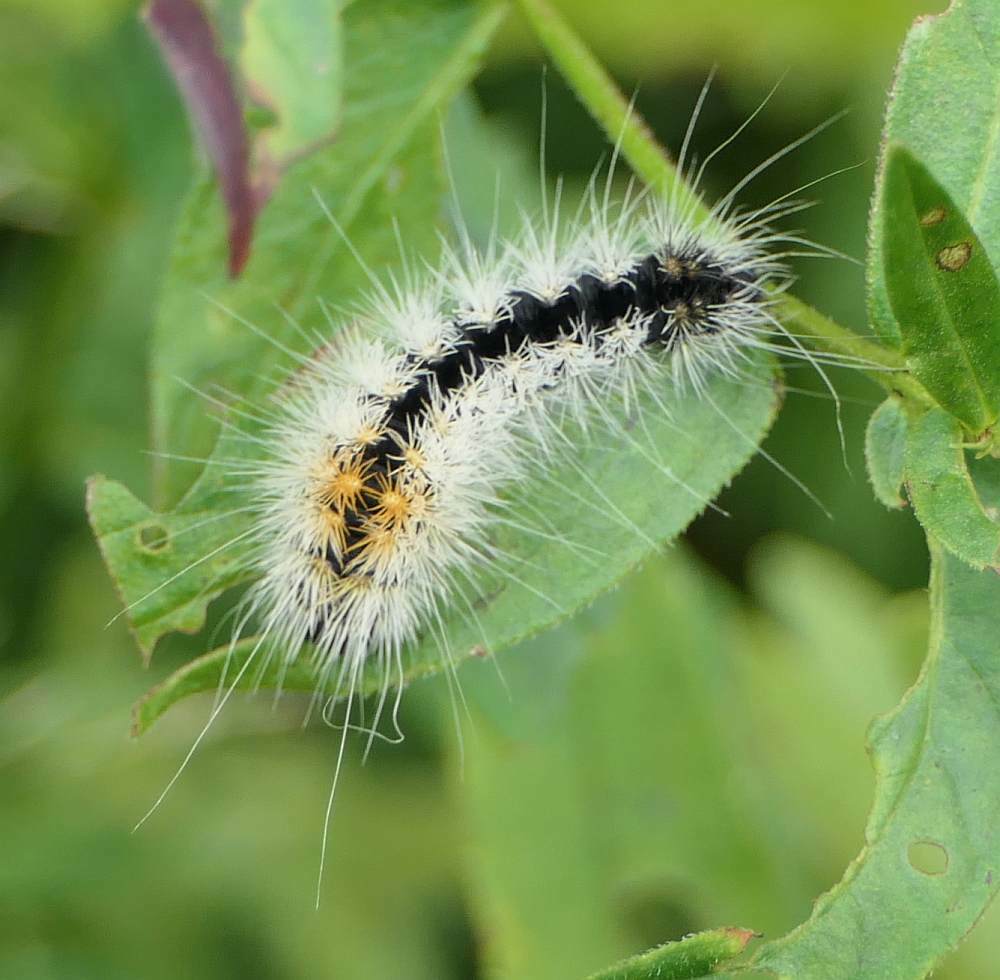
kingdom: Animalia
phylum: Arthropoda
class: Insecta
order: Lepidoptera
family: Noctuidae
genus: Acronicta
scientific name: Acronicta impressa
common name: Impressed dagger
